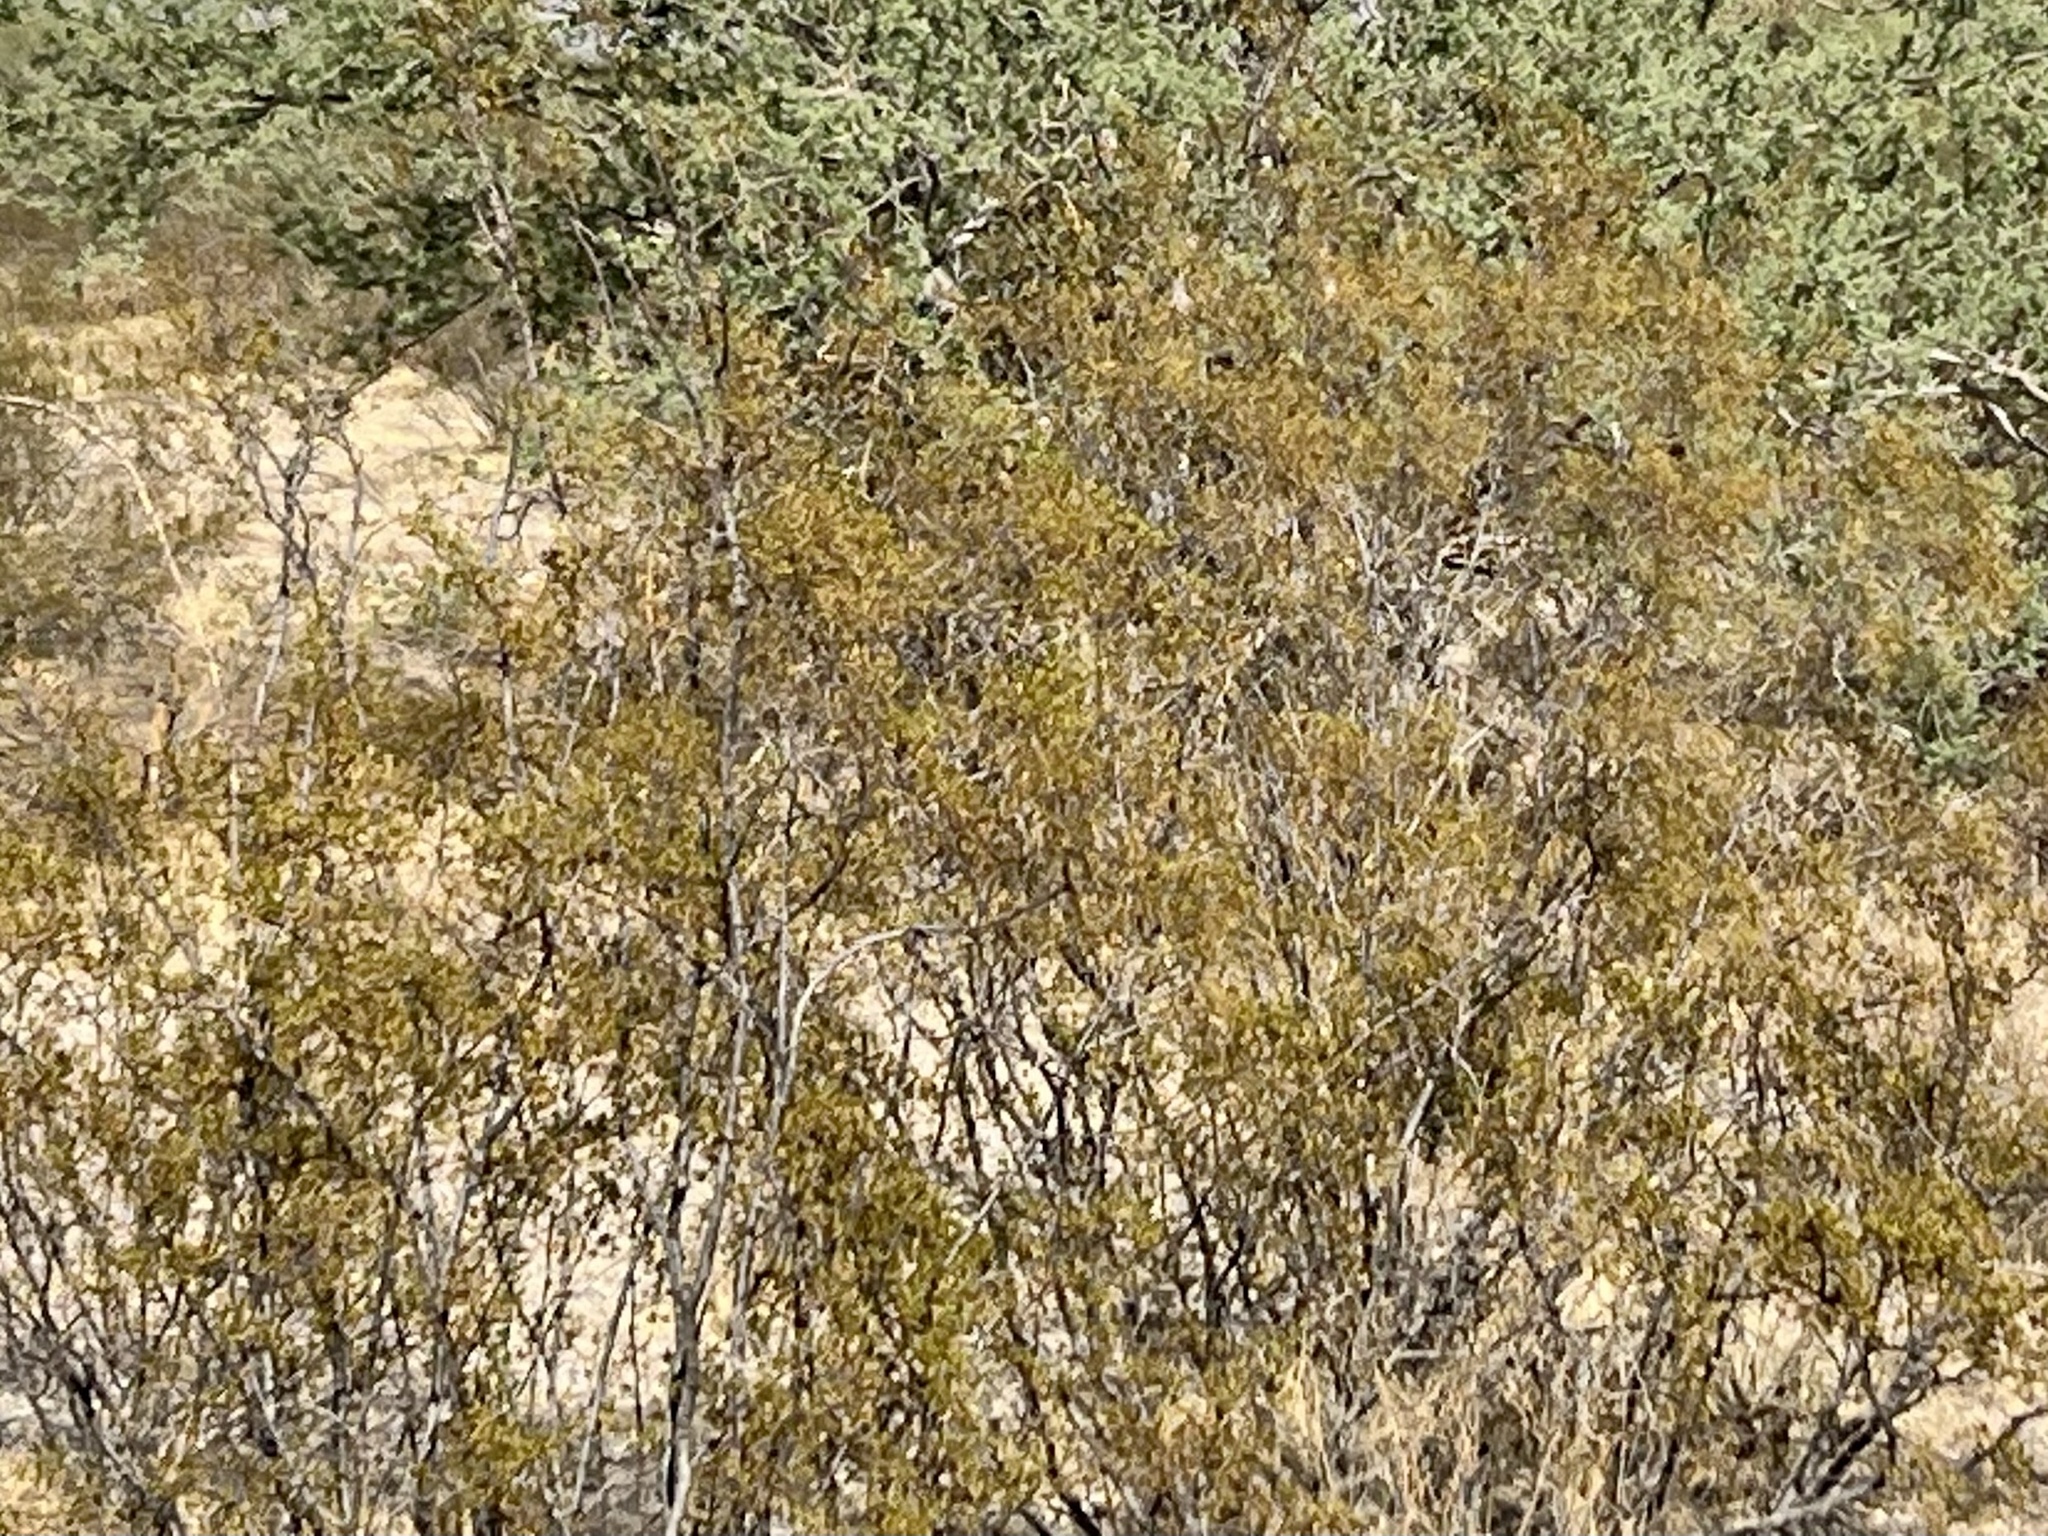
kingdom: Plantae
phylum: Tracheophyta
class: Magnoliopsida
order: Zygophyllales
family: Zygophyllaceae
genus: Larrea
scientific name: Larrea tridentata
